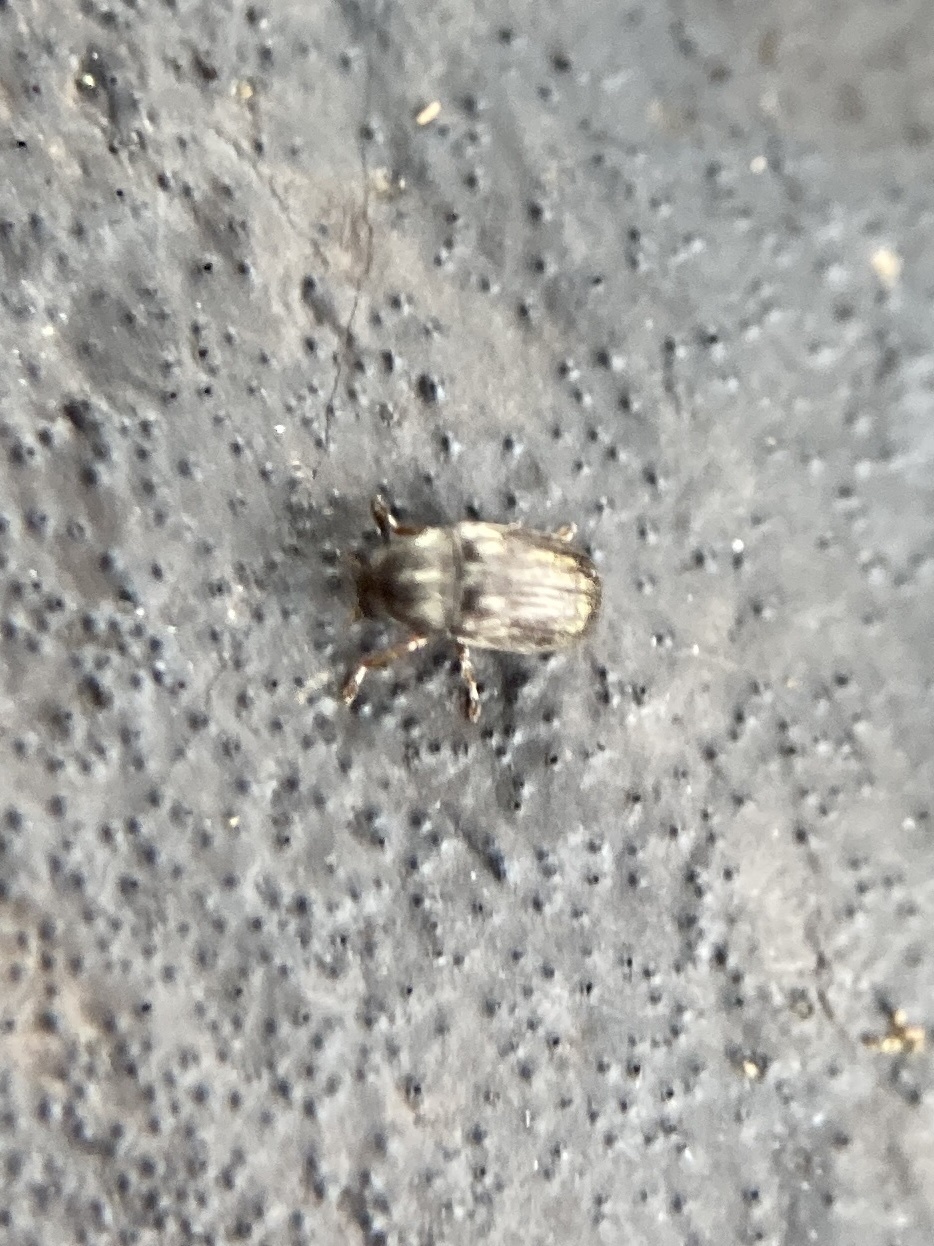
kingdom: Animalia
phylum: Arthropoda
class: Insecta
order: Coleoptera
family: Anthribidae
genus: Araeocerodes
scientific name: Araeocerodes
